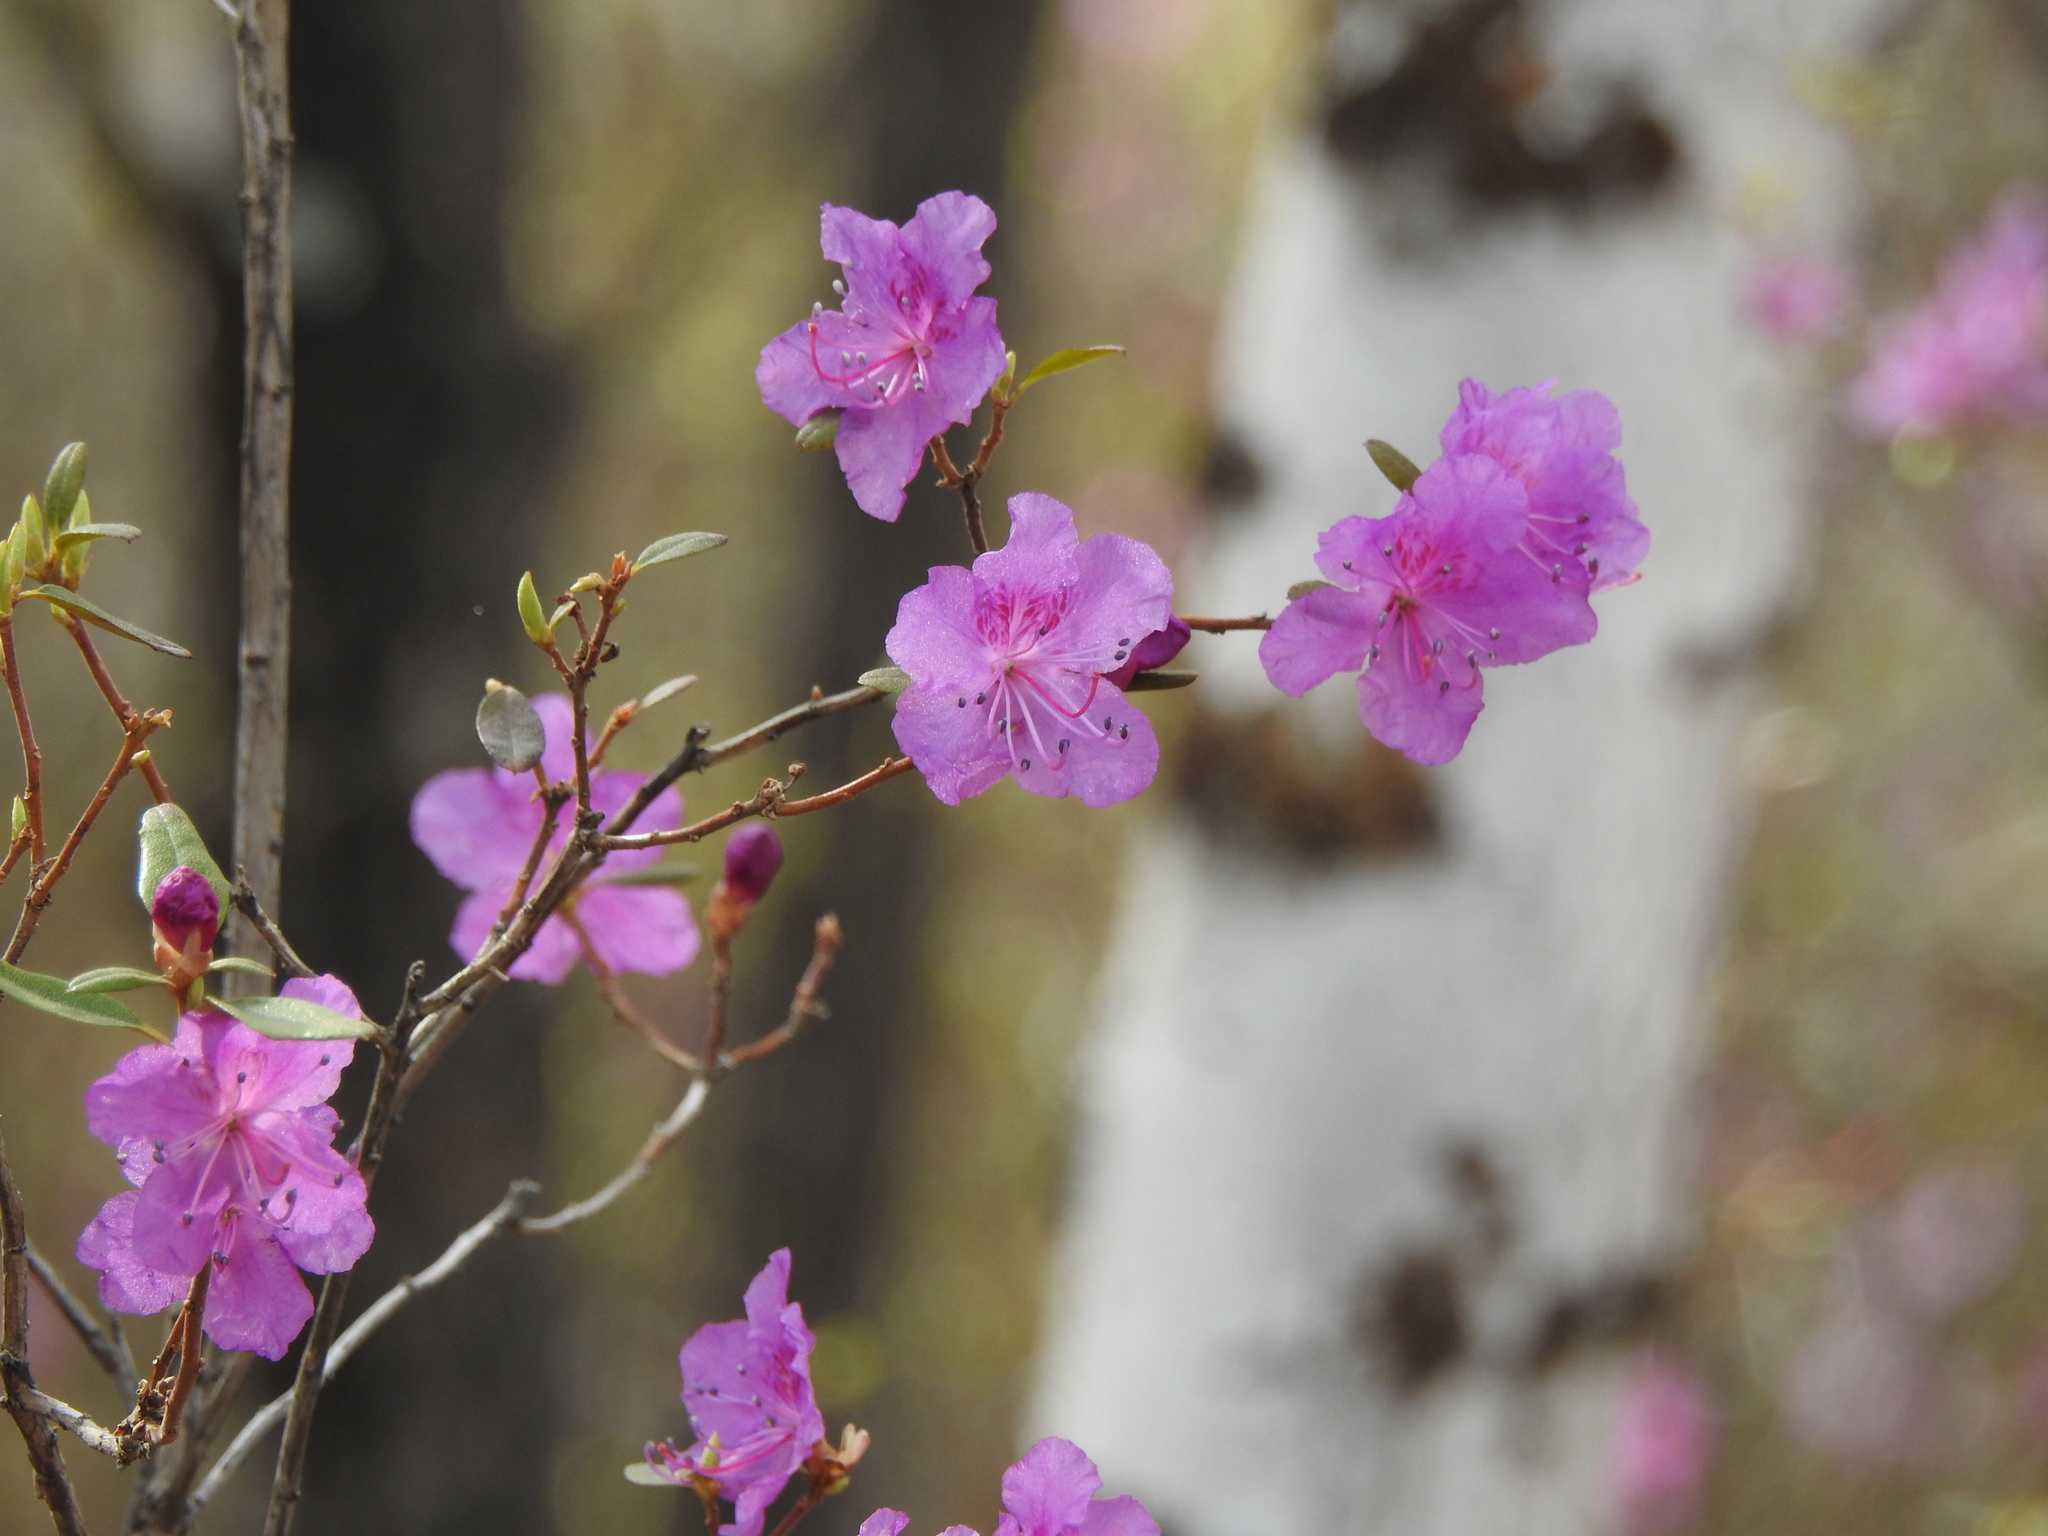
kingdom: Plantae
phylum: Tracheophyta
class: Magnoliopsida
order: Ericales
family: Ericaceae
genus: Rhododendron
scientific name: Rhododendron dauricum
